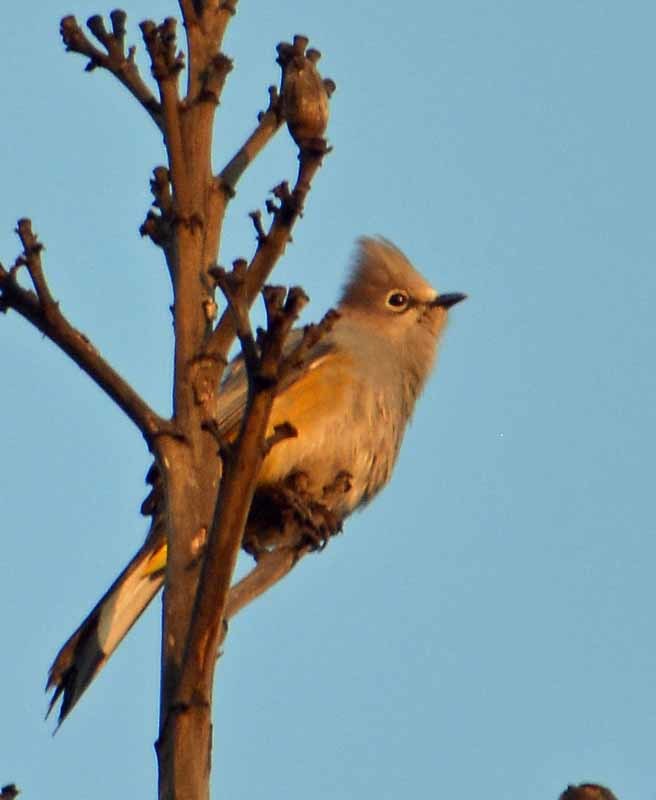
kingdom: Animalia
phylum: Chordata
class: Aves
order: Passeriformes
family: Ptilogonatidae
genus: Ptilogonys
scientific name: Ptilogonys cinereus
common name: Gray silky-flycatcher
